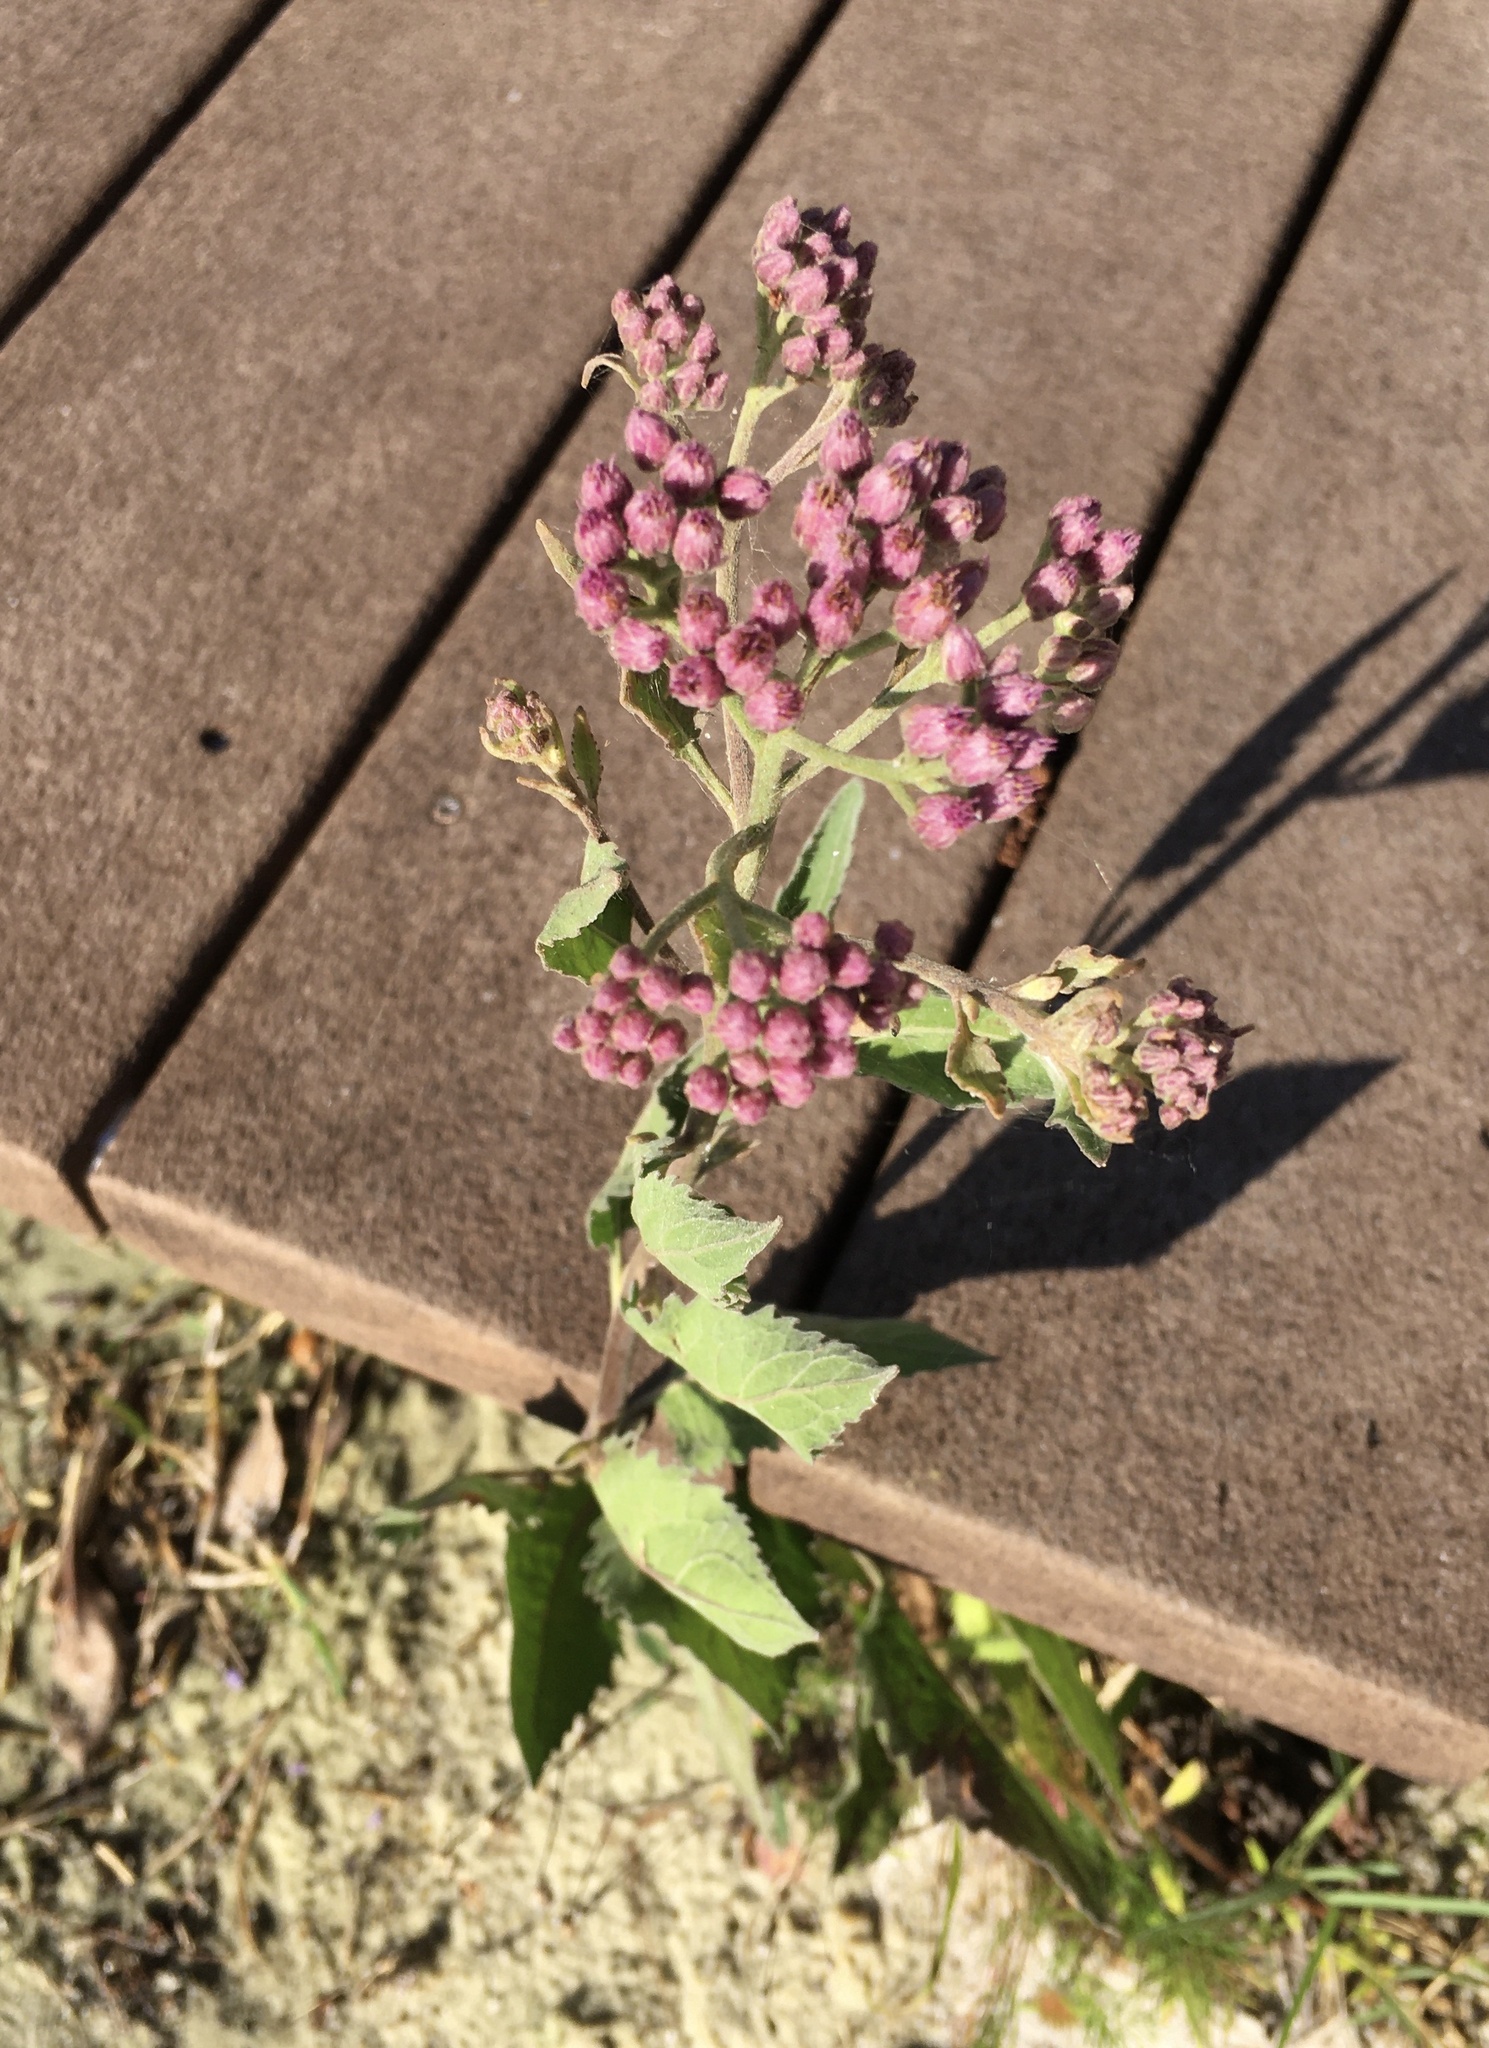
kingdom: Plantae
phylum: Tracheophyta
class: Magnoliopsida
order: Asterales
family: Asteraceae
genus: Pluchea
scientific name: Pluchea odorata
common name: Saltmarsh fleabane
